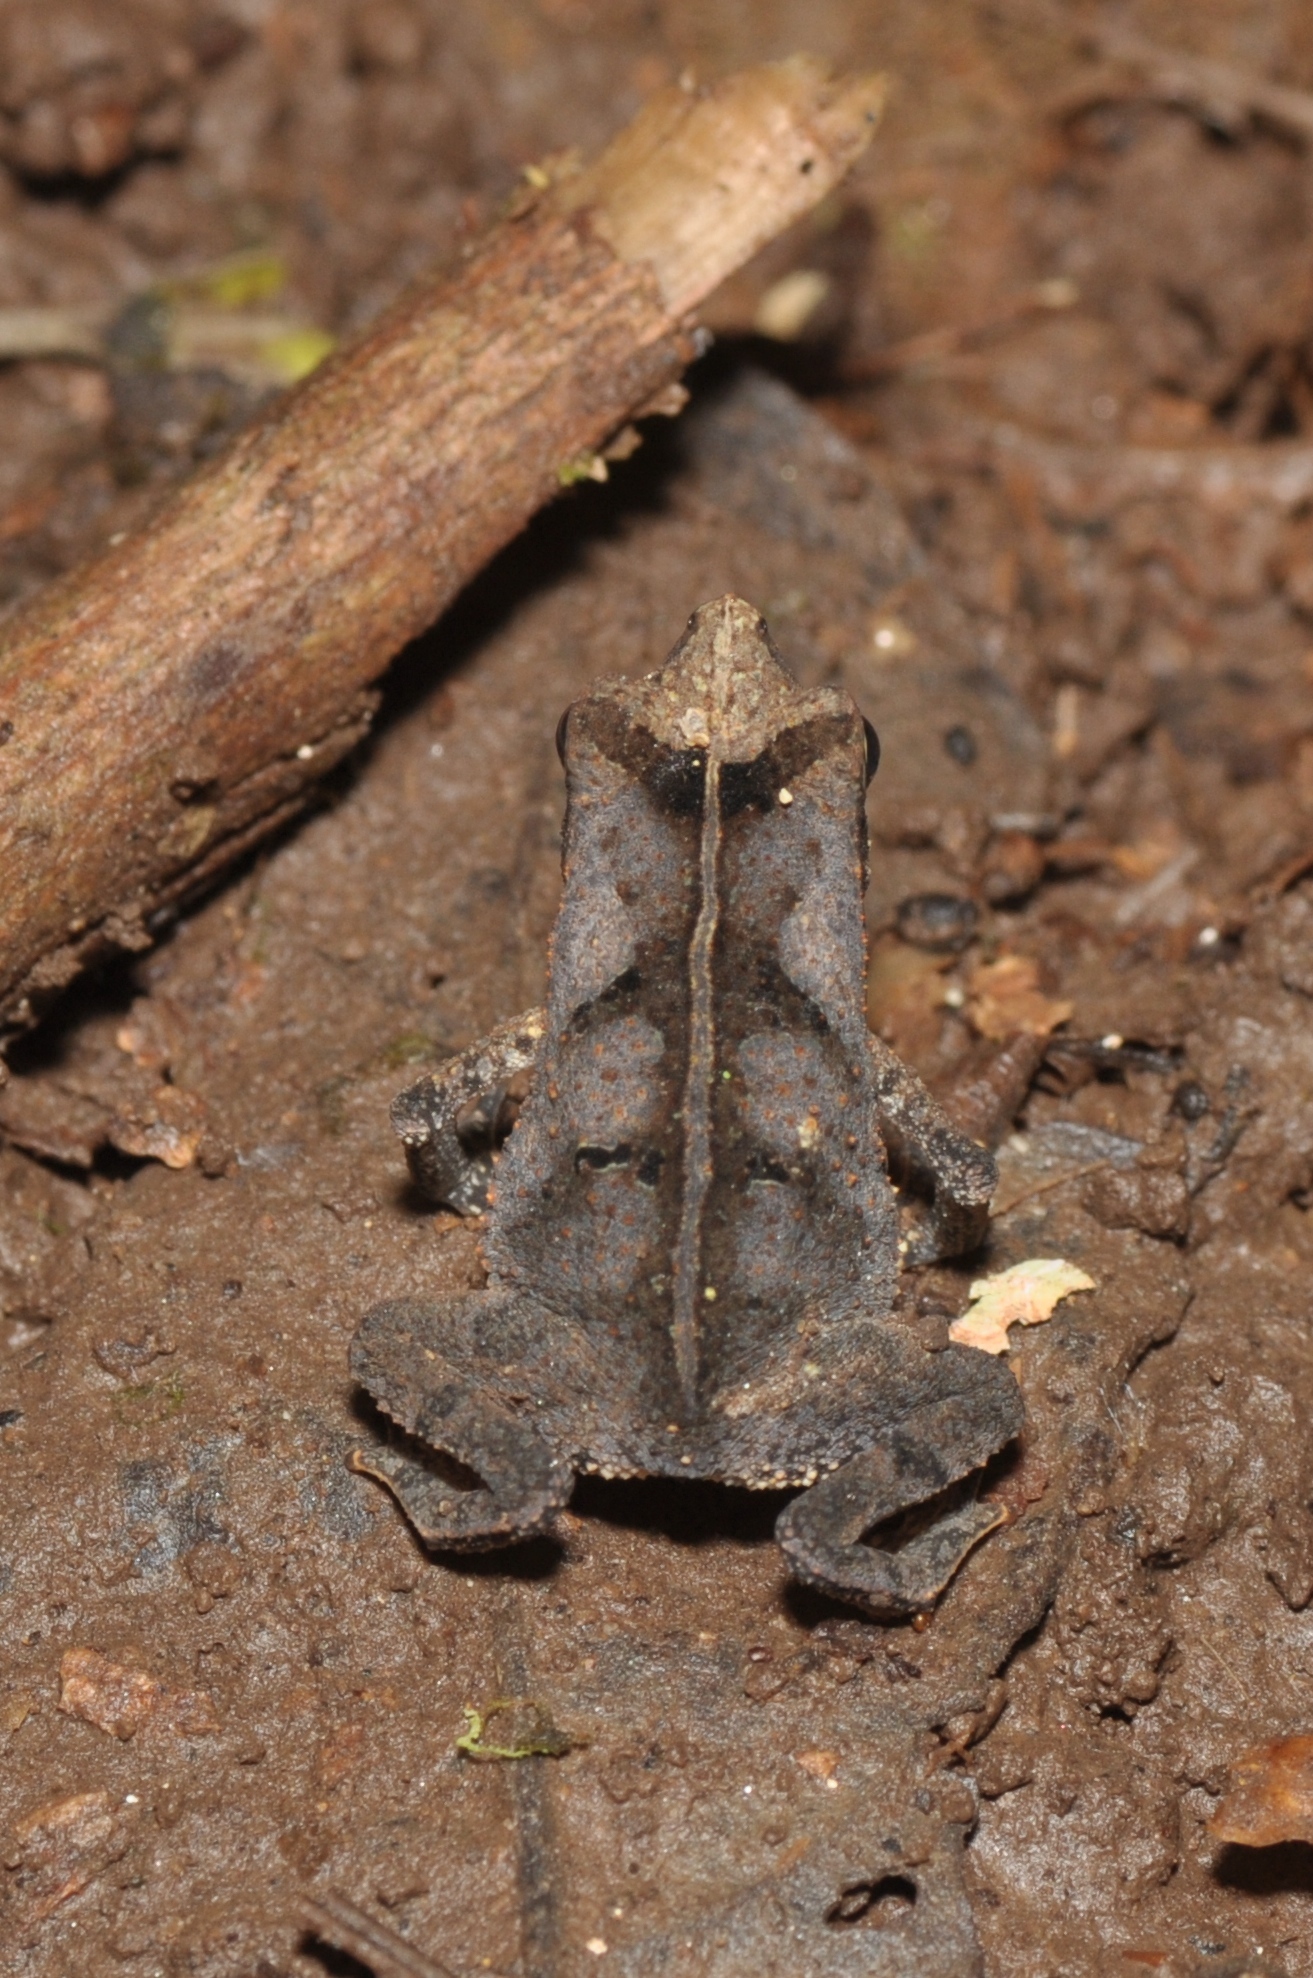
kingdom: Animalia
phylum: Chordata
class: Amphibia
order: Anura
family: Bufonidae
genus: Rhinella
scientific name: Rhinella margaritifera
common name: Mitred toad
